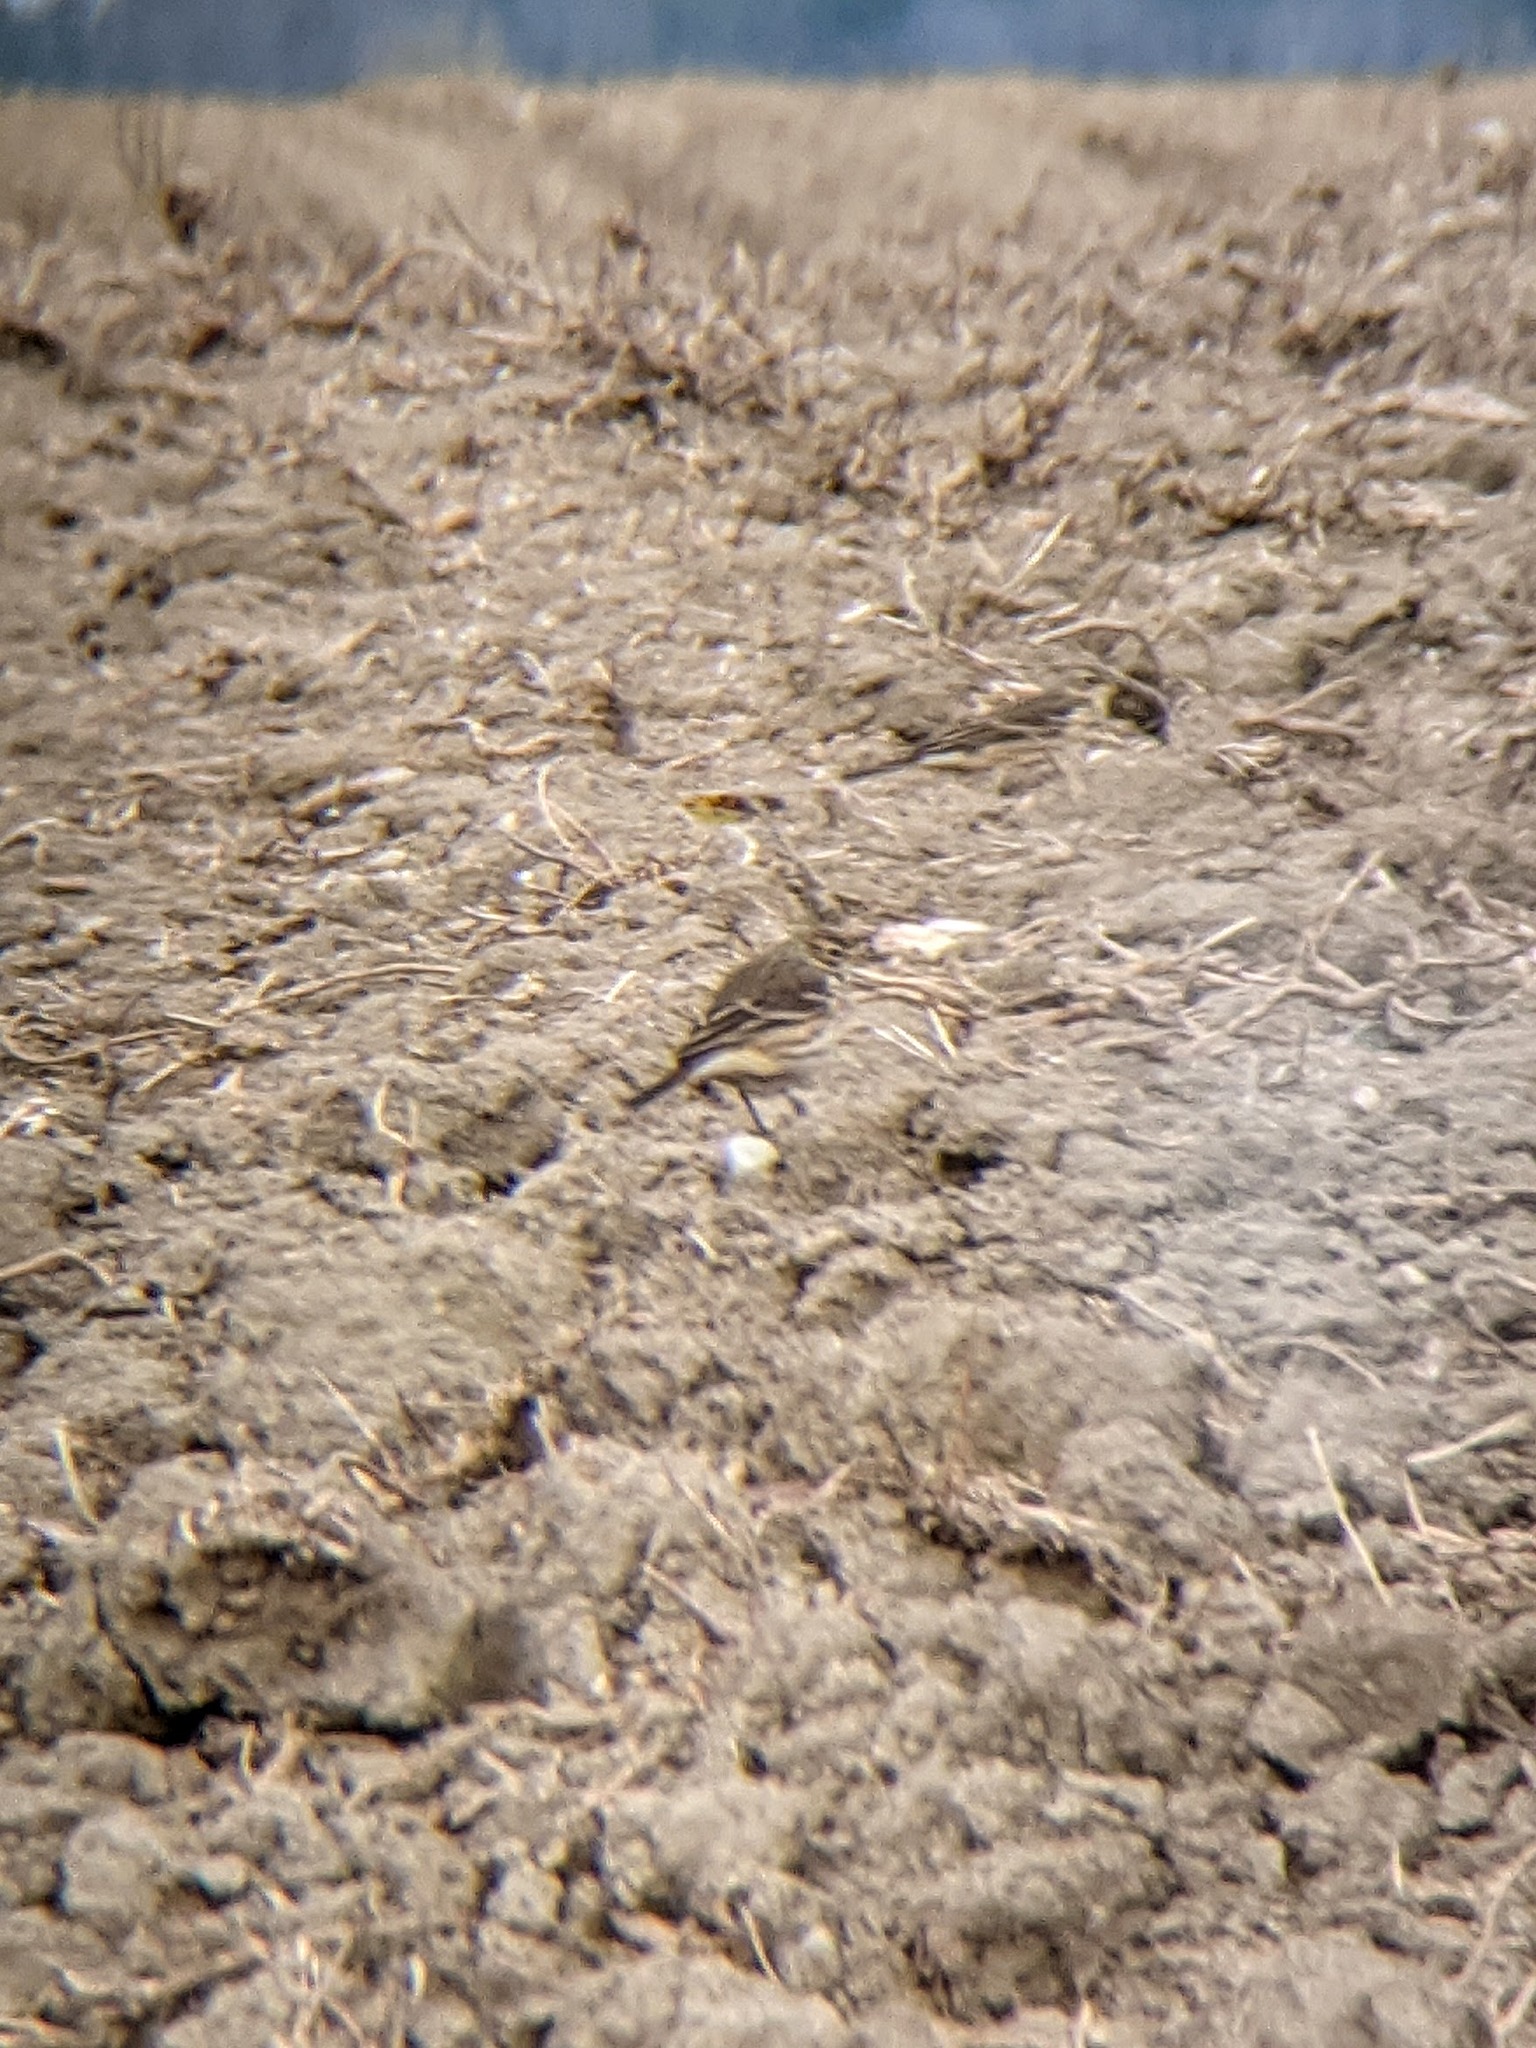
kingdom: Animalia
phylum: Chordata
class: Aves
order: Passeriformes
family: Motacillidae
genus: Anthus
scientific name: Anthus rubescens
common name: Buff-bellied pipit
